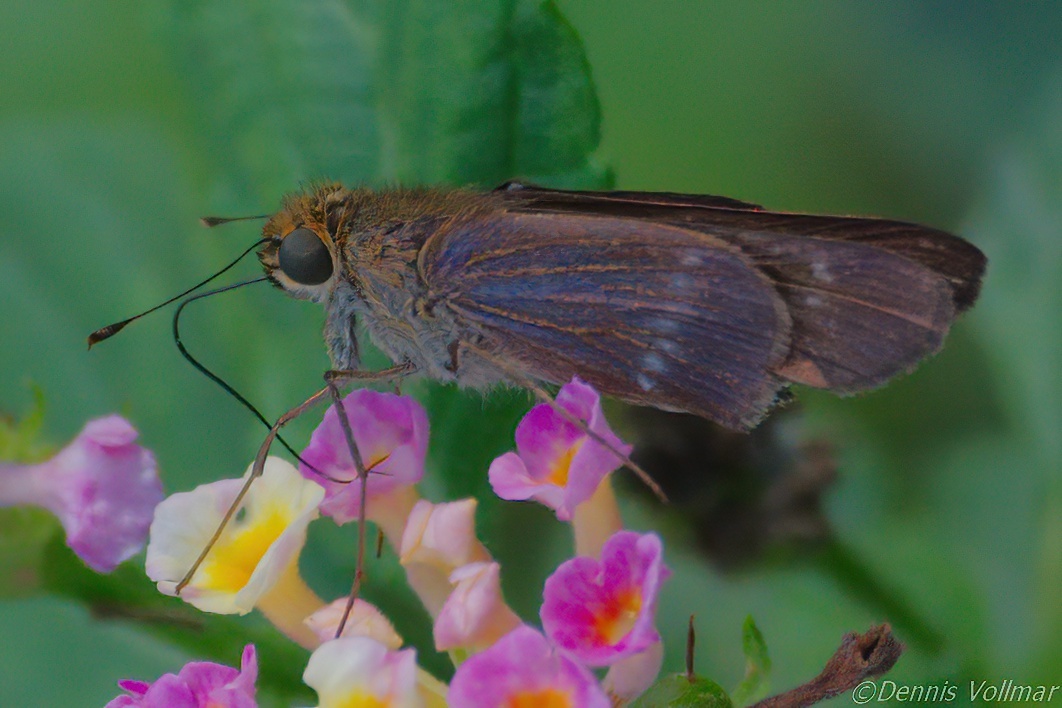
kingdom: Animalia
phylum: Arthropoda
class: Insecta
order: Lepidoptera
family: Hesperiidae
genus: Turesis
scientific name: Turesis lucas
